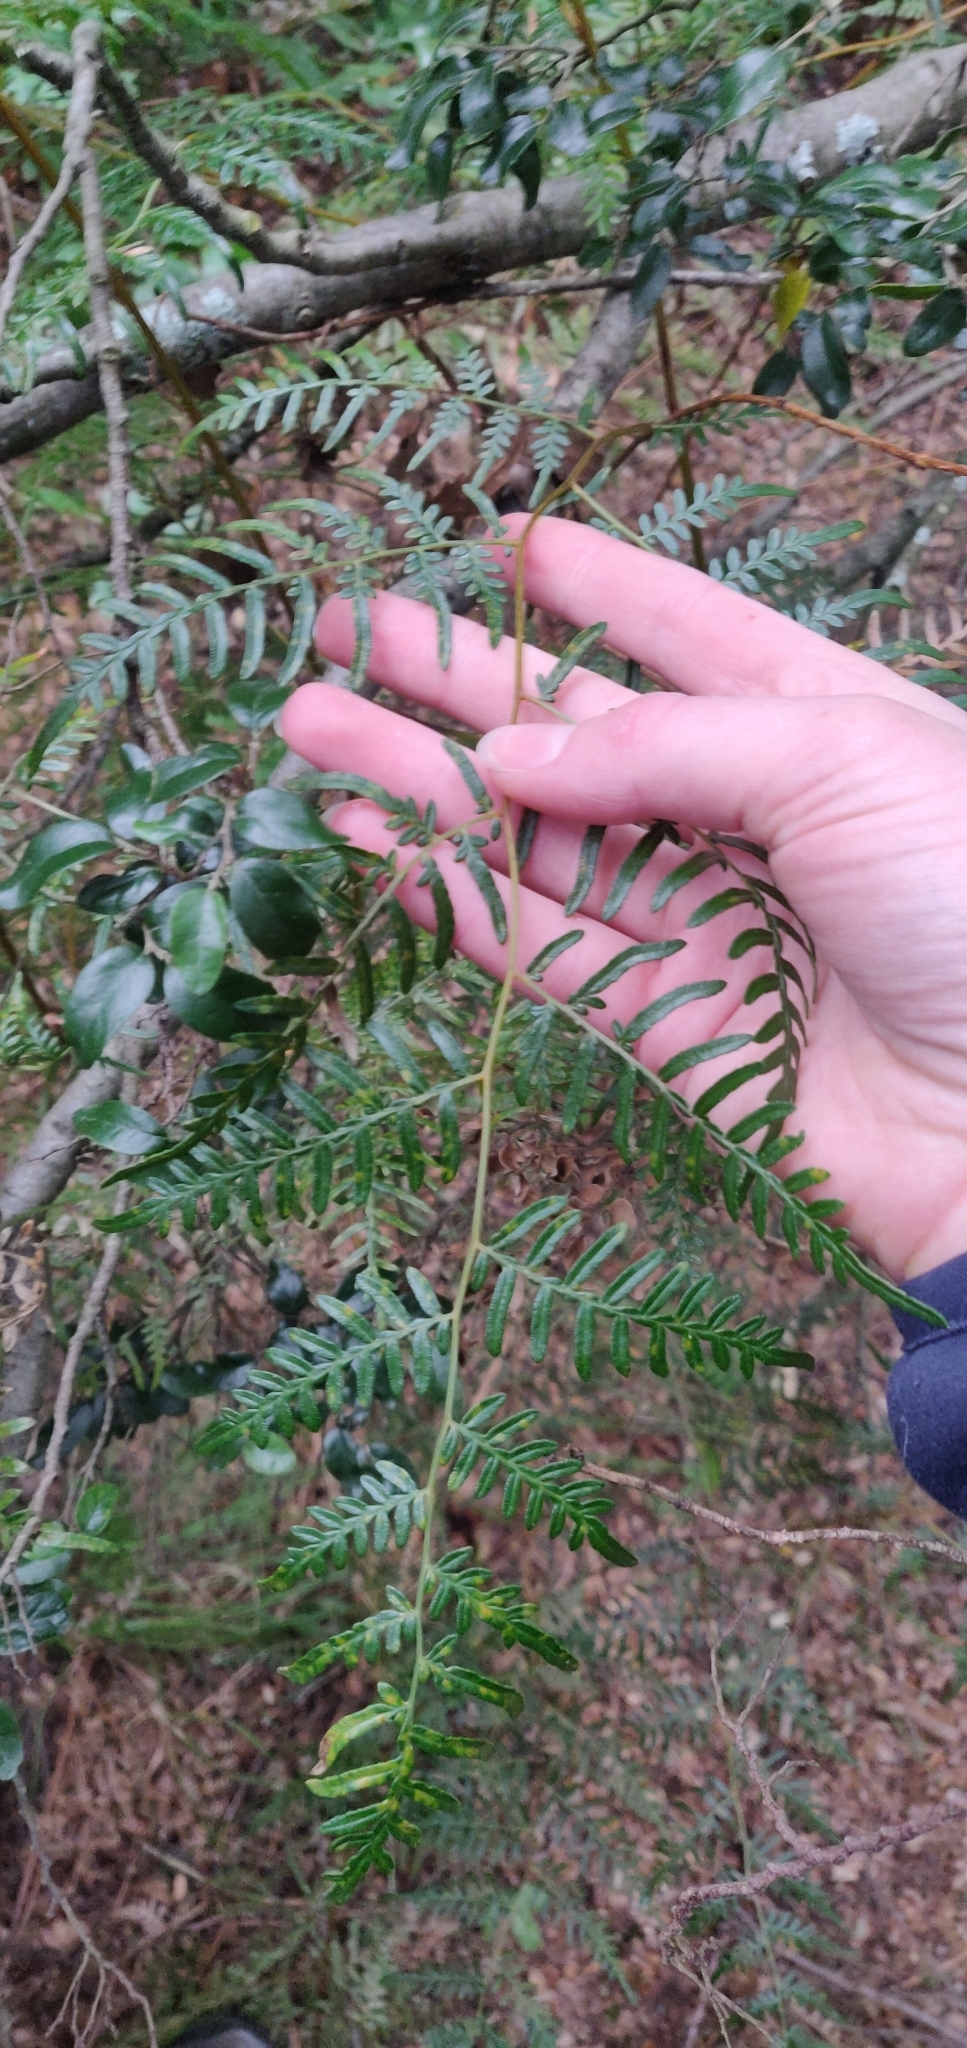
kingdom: Plantae
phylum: Tracheophyta
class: Polypodiopsida
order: Polypodiales
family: Dennstaedtiaceae
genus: Pteridium
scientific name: Pteridium esculentum
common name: Bracken fern
